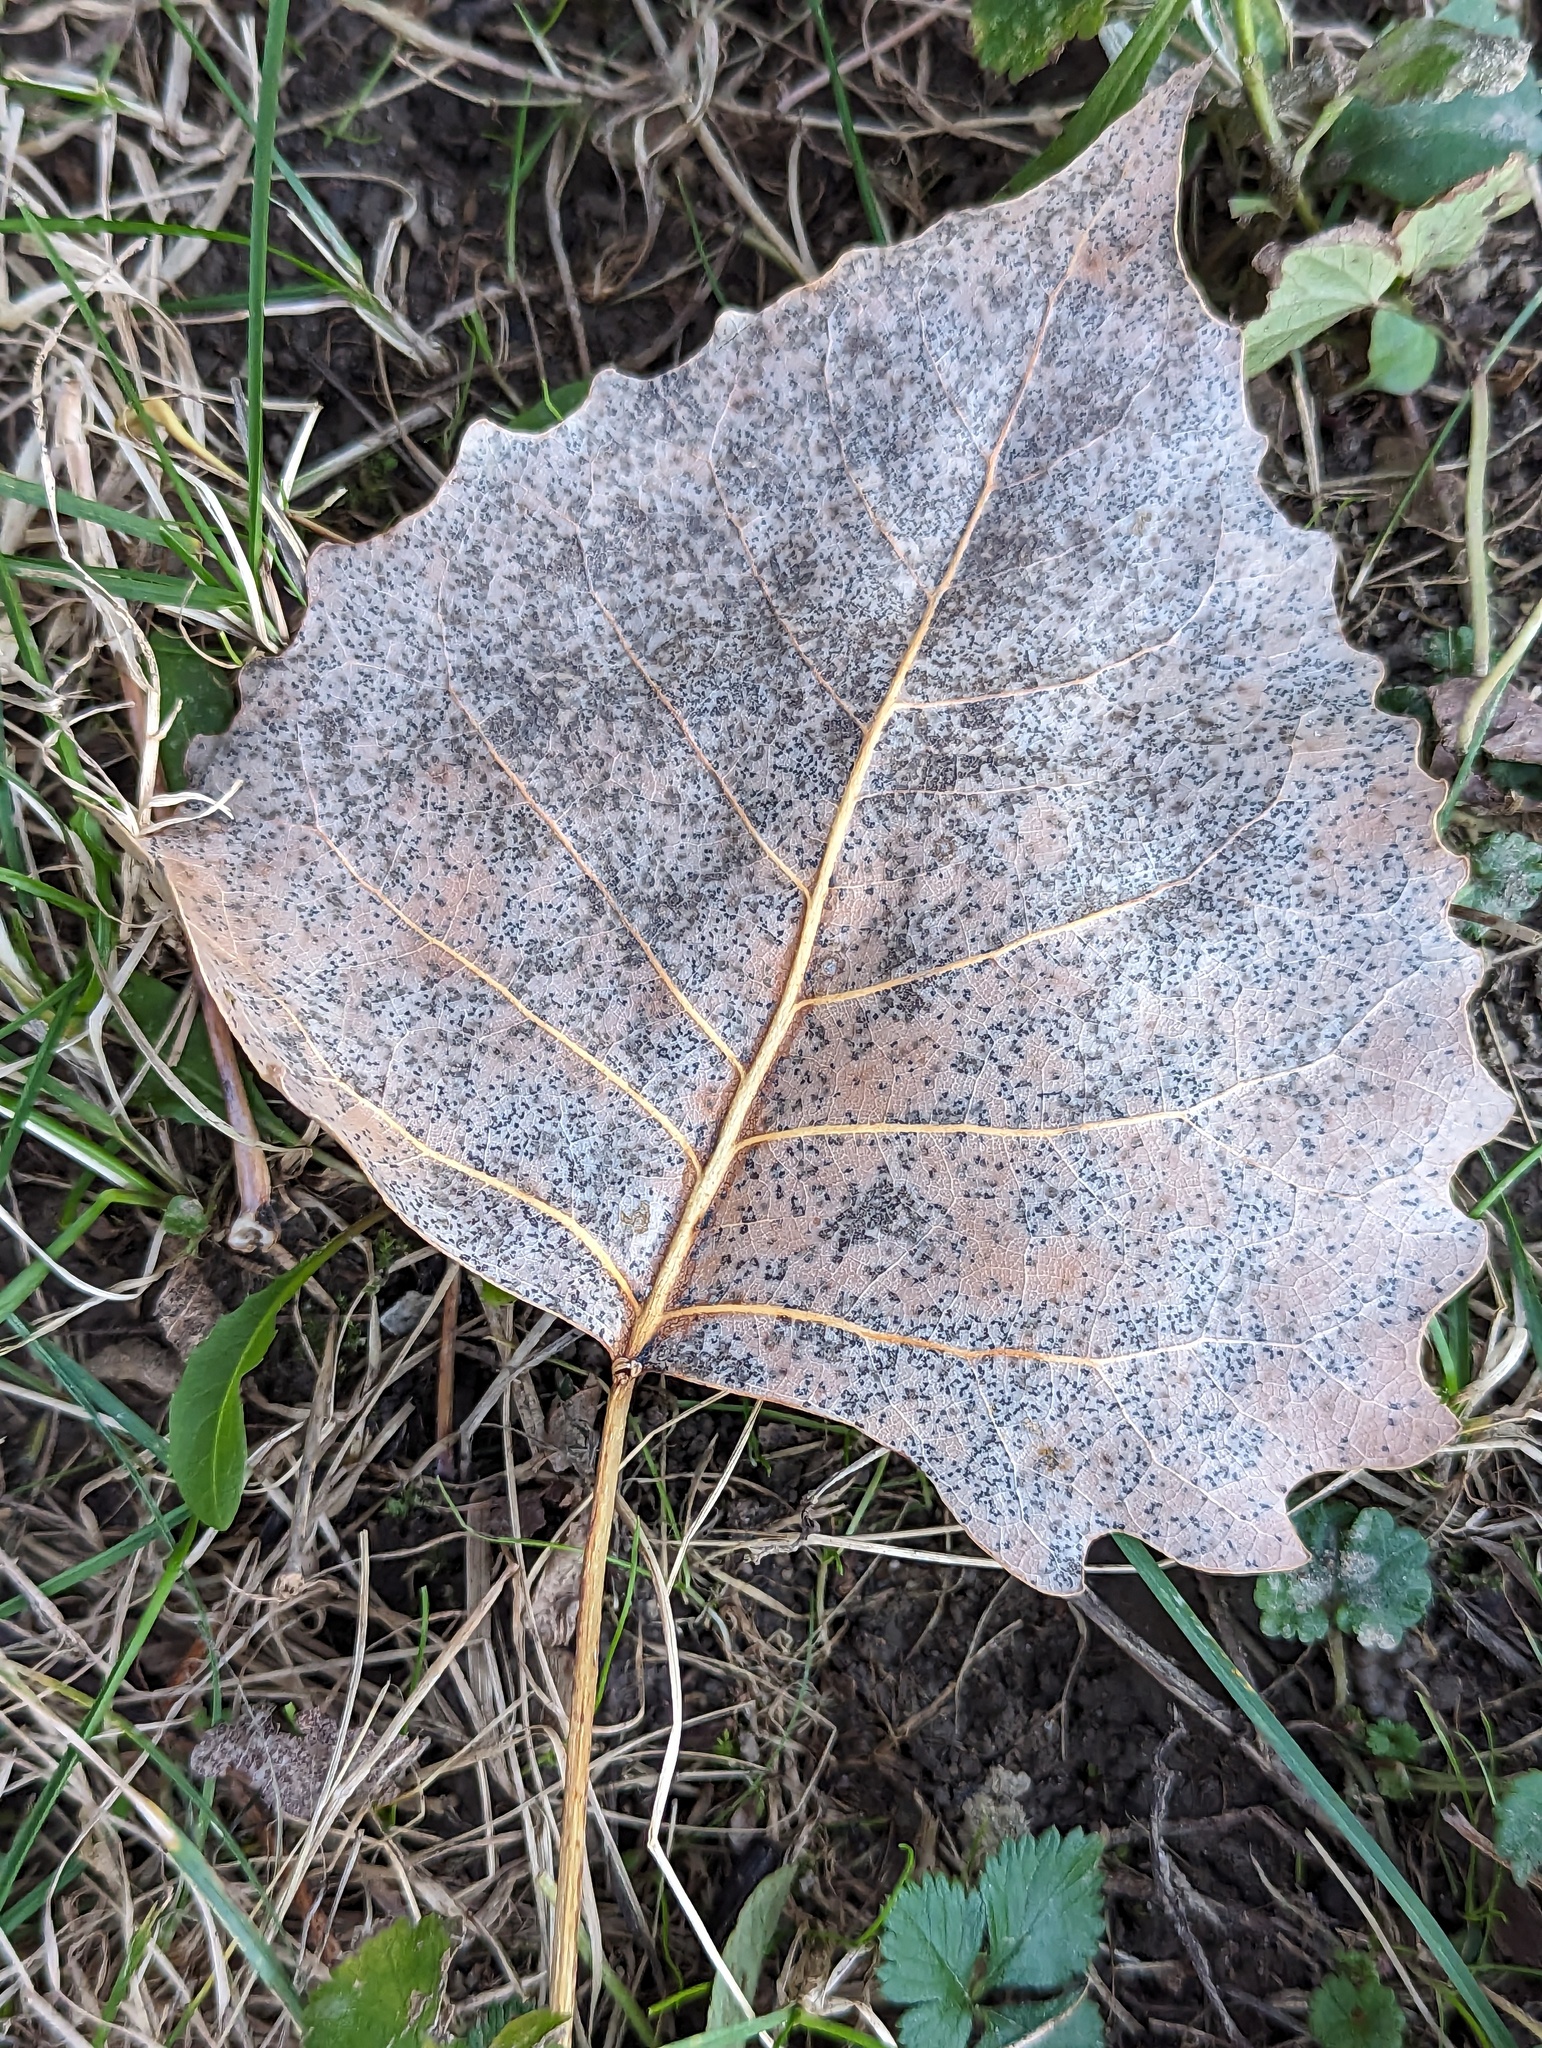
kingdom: Plantae
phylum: Tracheophyta
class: Magnoliopsida
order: Malpighiales
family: Salicaceae
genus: Populus
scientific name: Populus deltoides
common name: Eastern cottonwood
